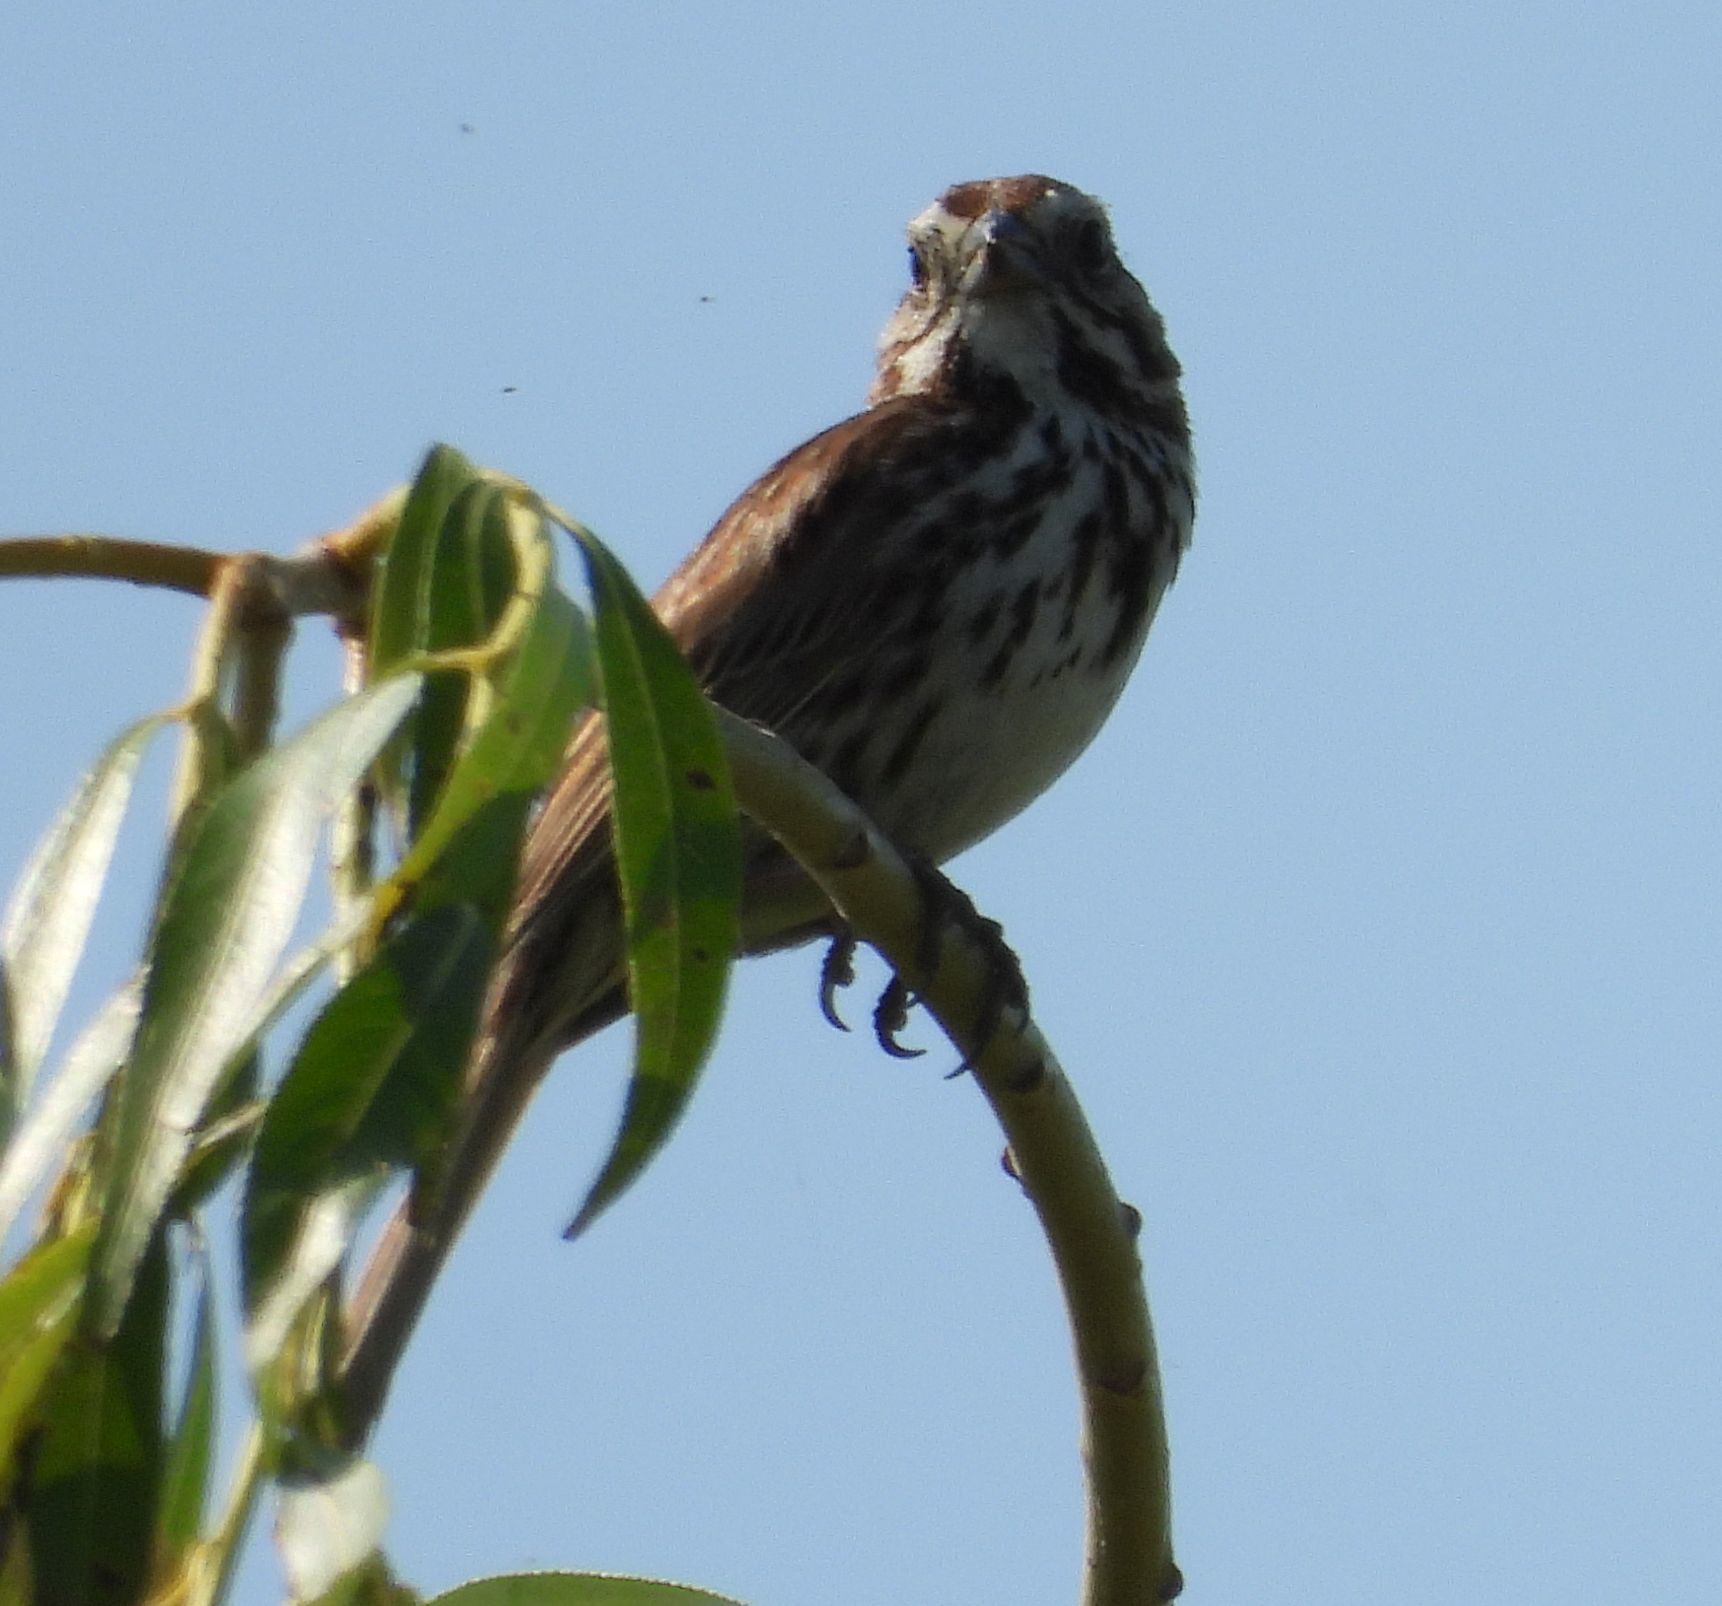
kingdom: Animalia
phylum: Chordata
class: Aves
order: Passeriformes
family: Passerellidae
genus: Melospiza
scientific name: Melospiza melodia
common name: Song sparrow
